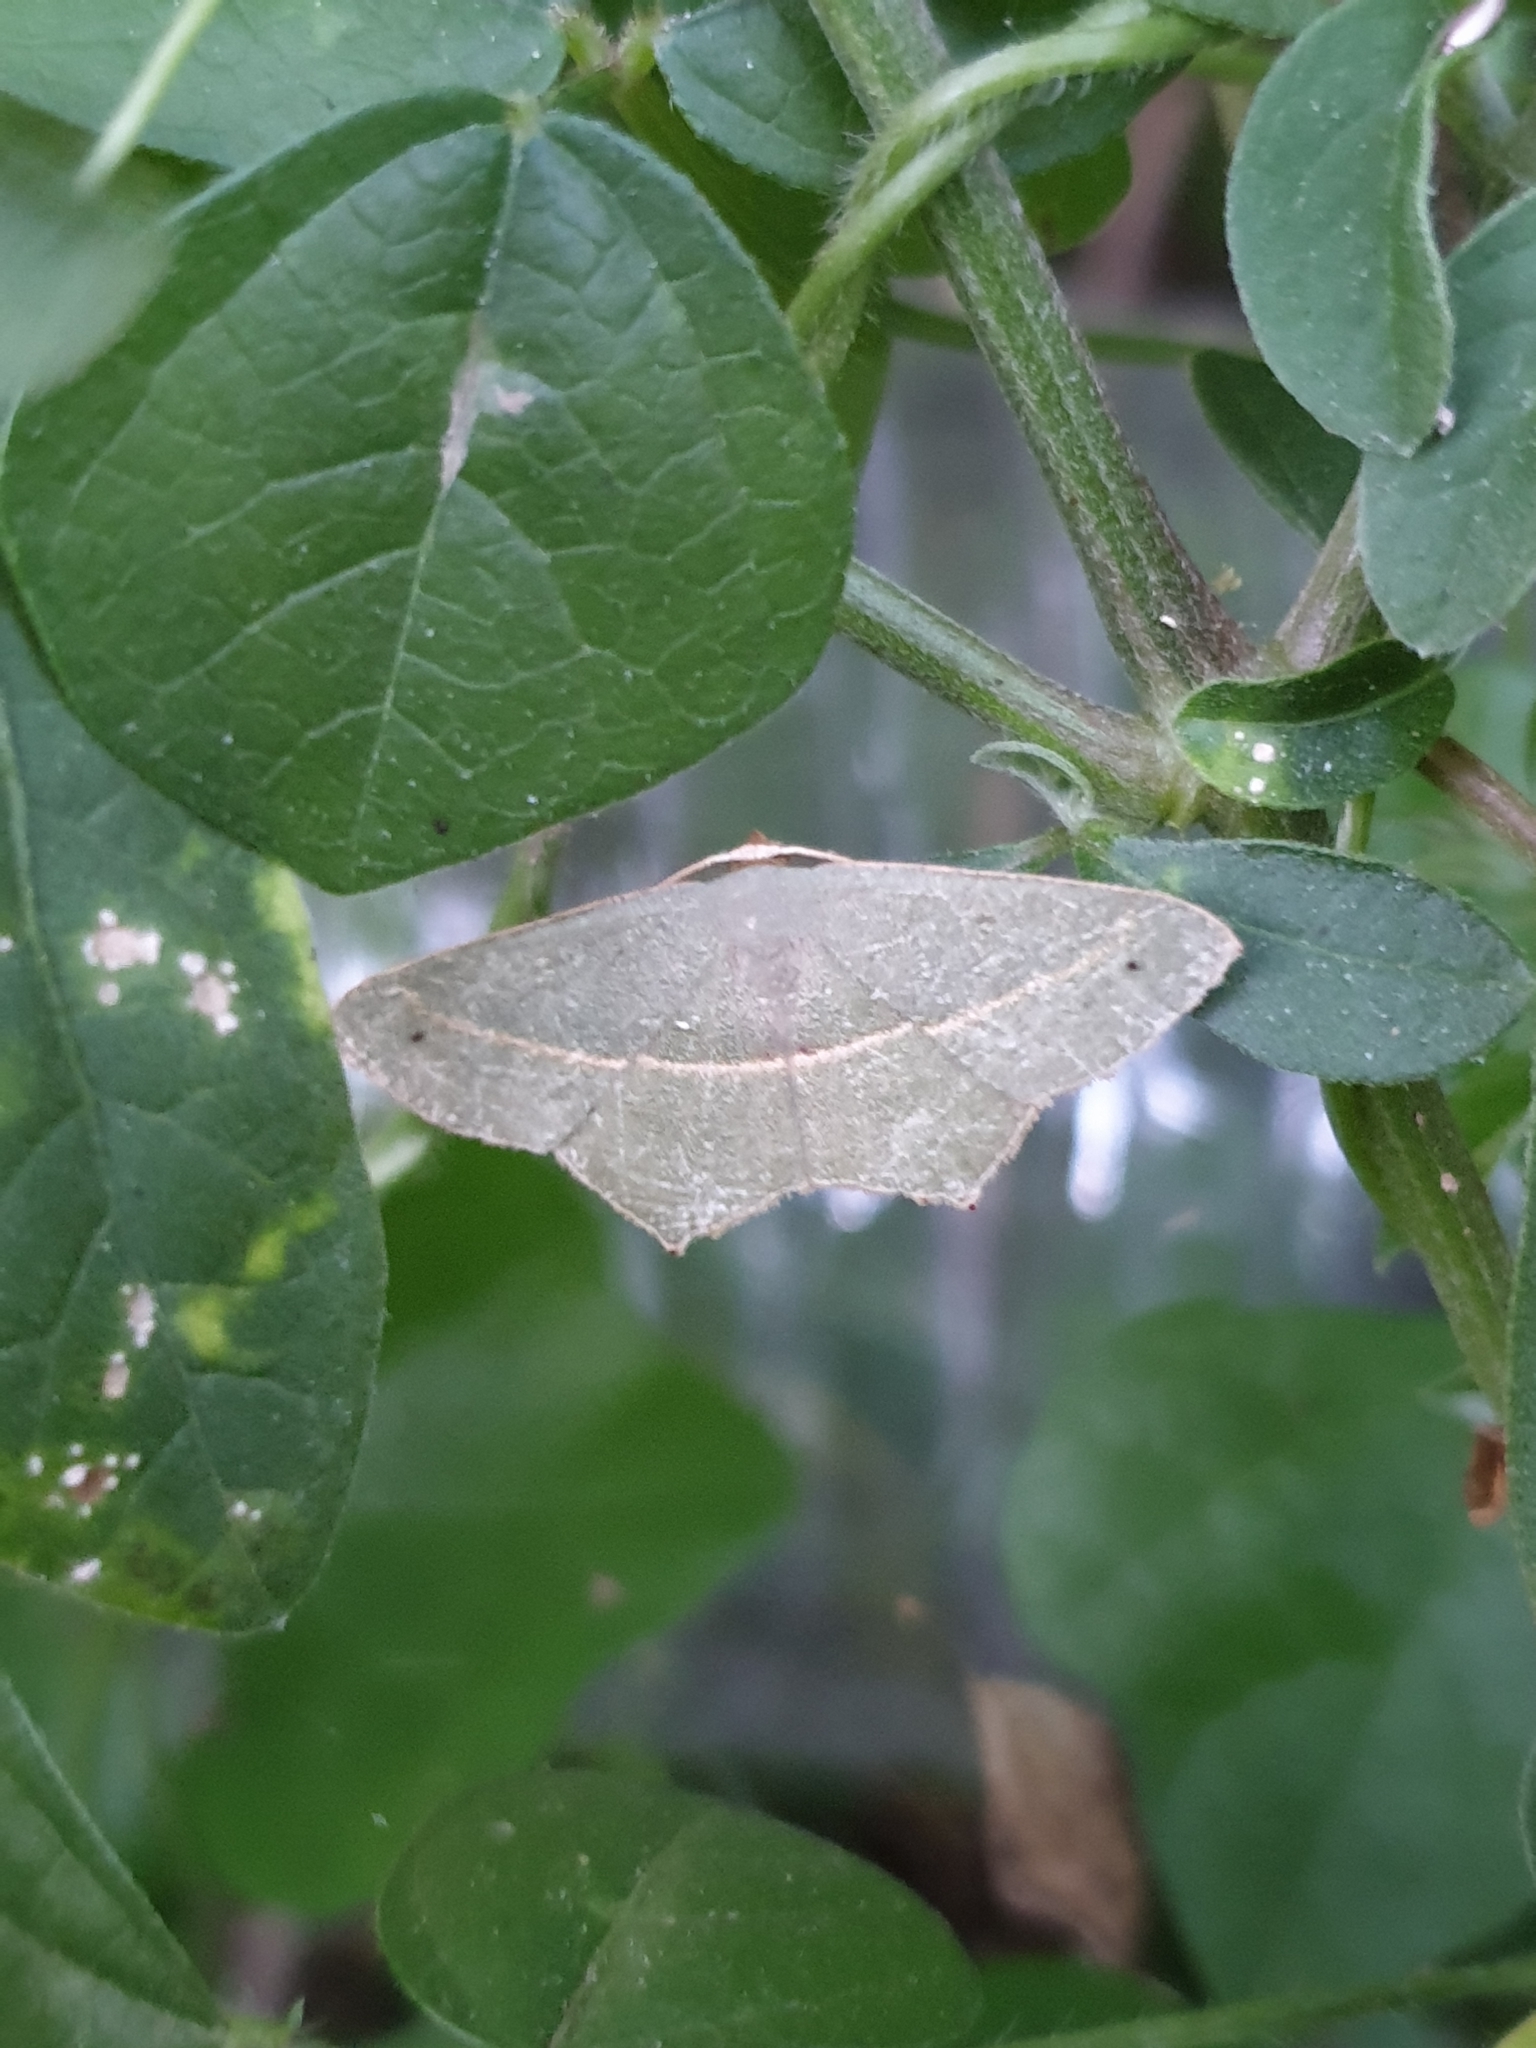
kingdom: Animalia
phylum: Arthropoda
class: Insecta
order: Lepidoptera
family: Geometridae
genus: Traminda
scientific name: Traminda mundissima
